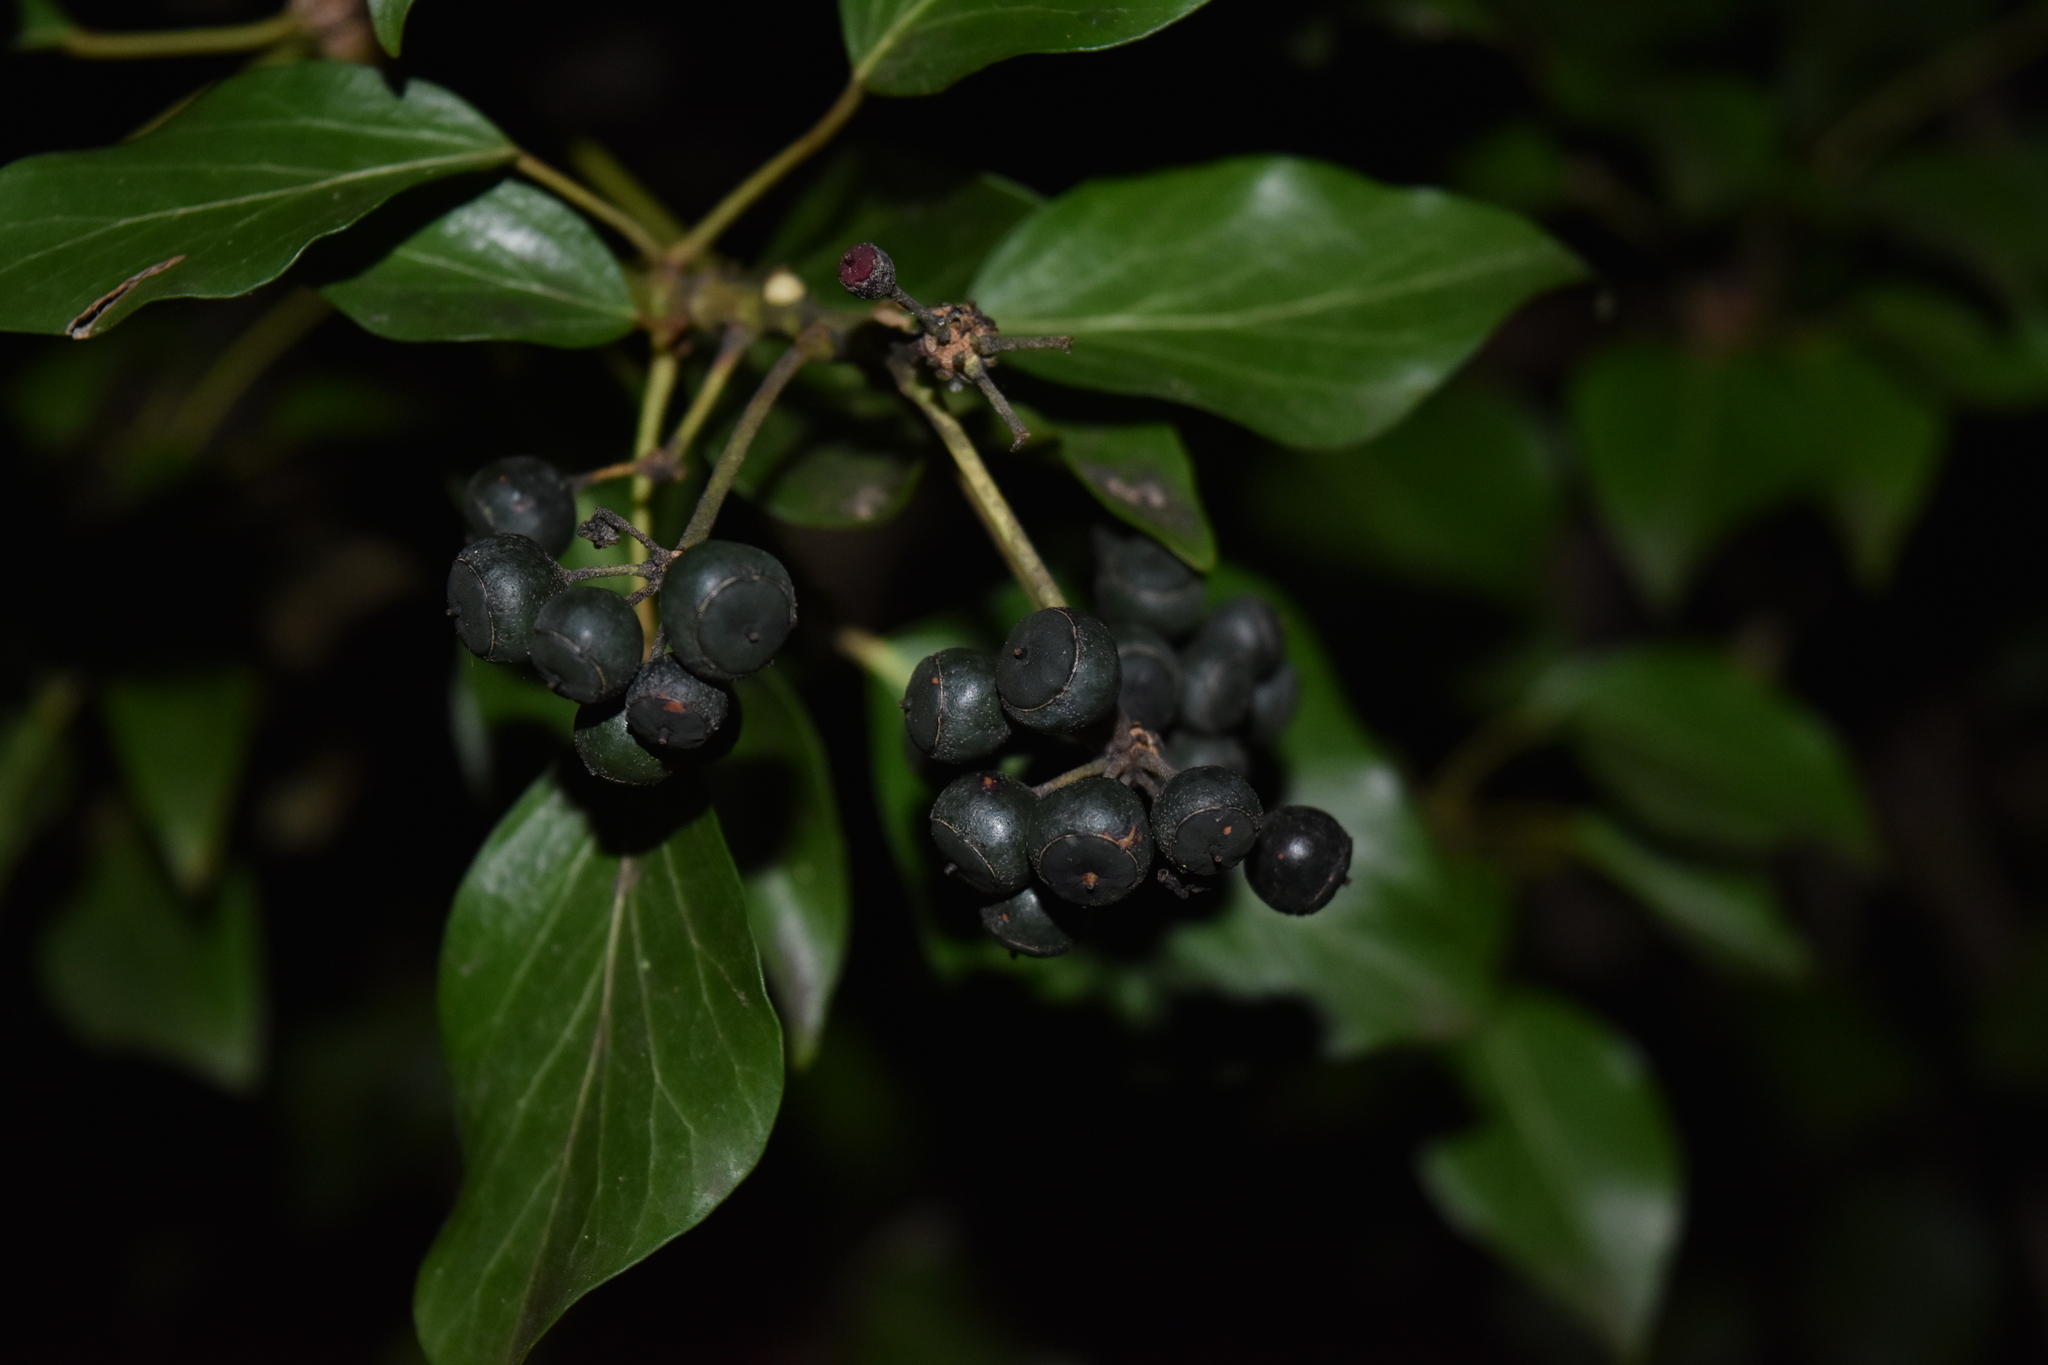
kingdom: Plantae
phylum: Tracheophyta
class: Magnoliopsida
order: Apiales
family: Araliaceae
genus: Hedera
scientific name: Hedera helix
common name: Ivy
